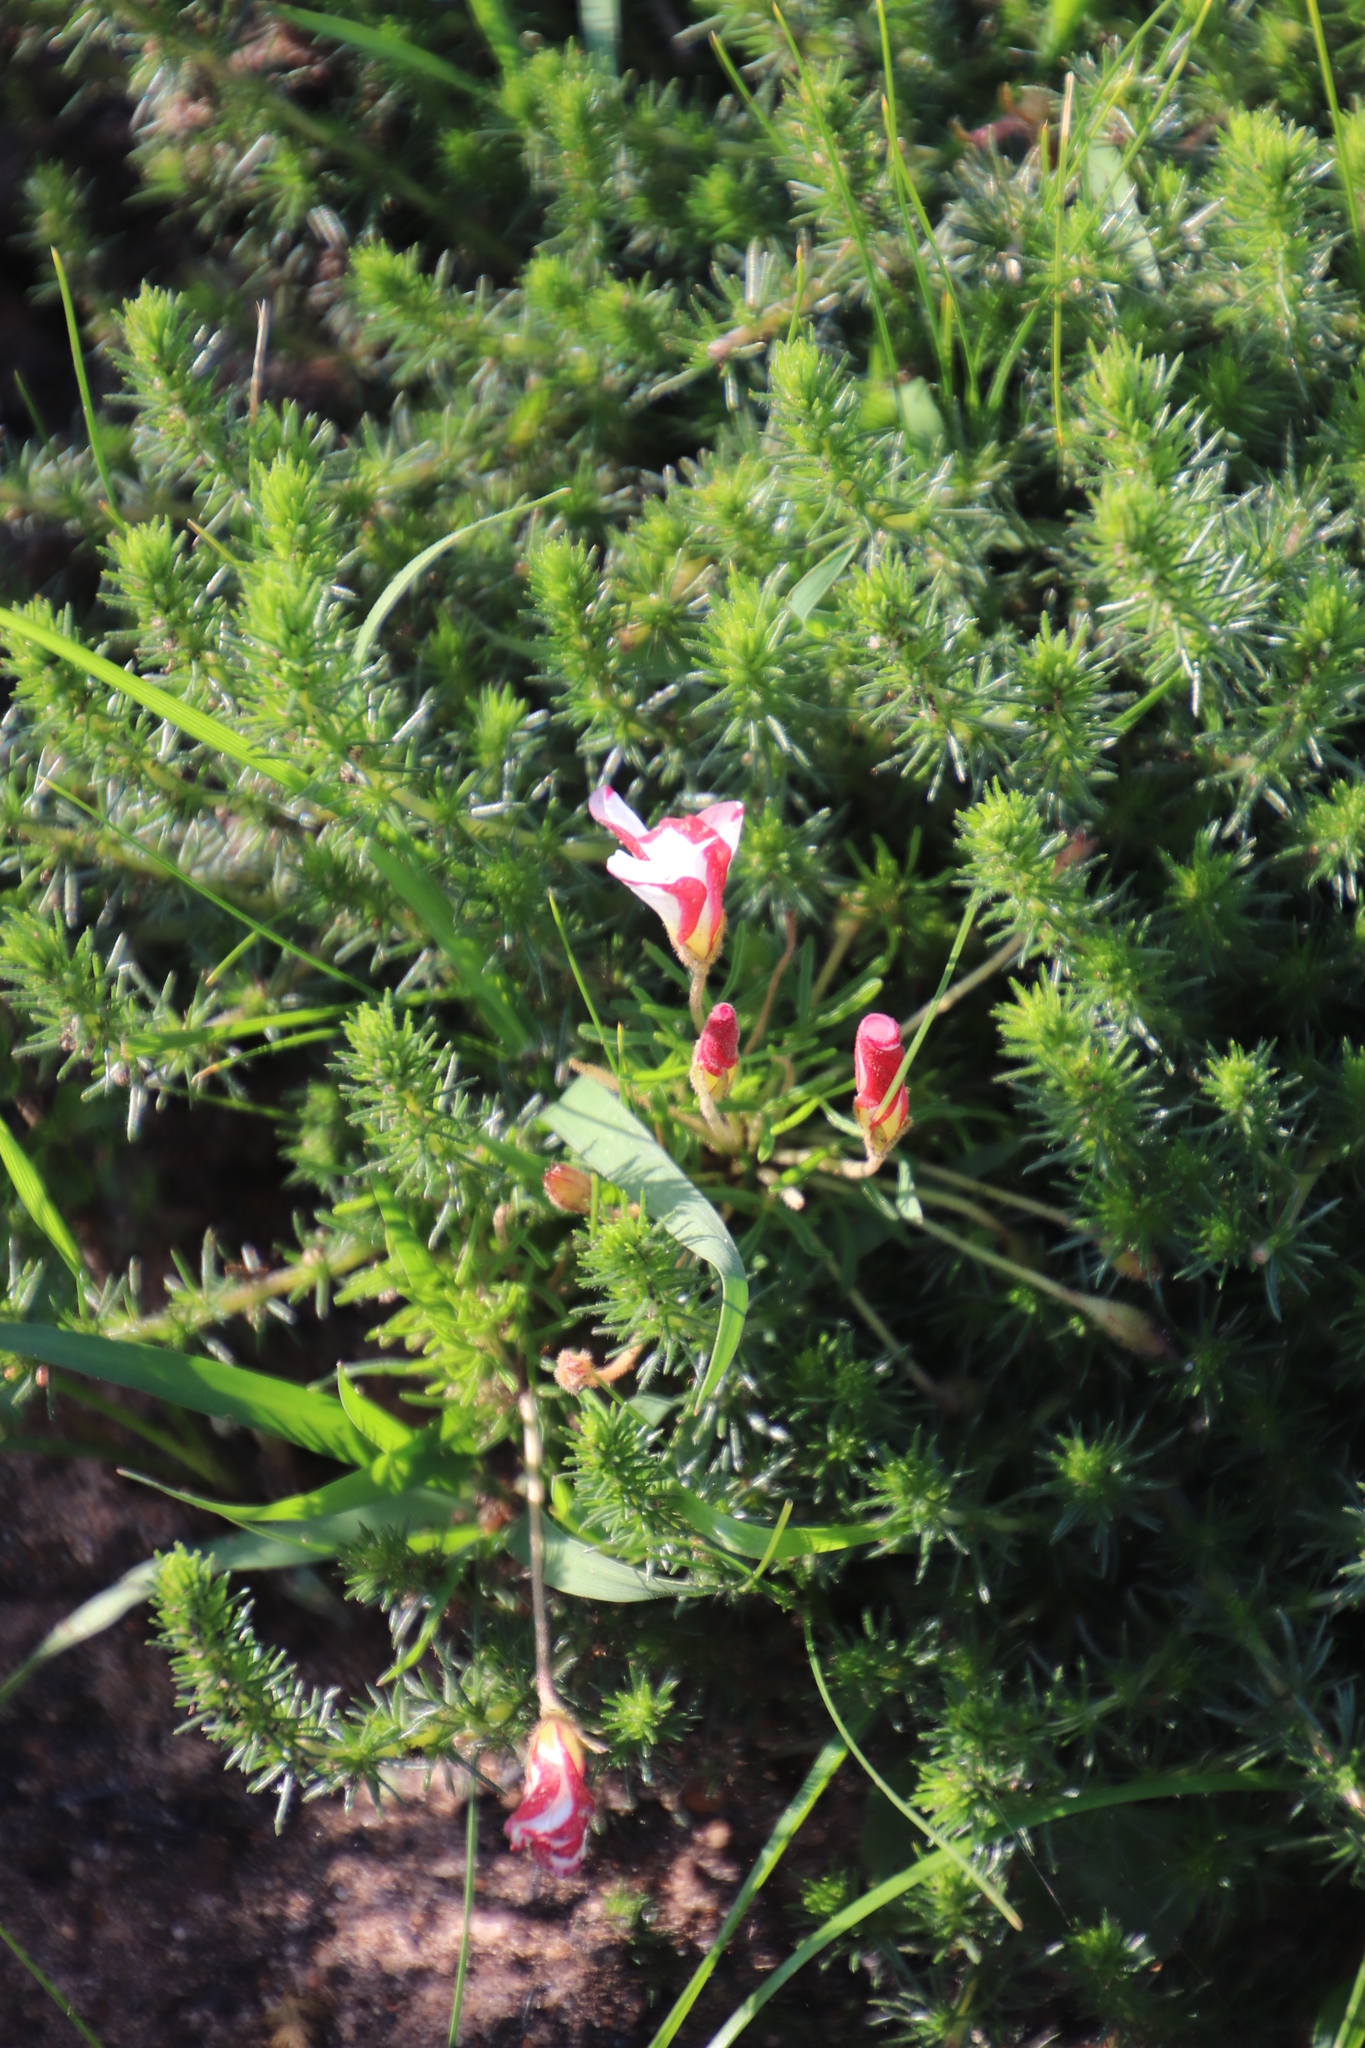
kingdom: Plantae
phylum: Tracheophyta
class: Magnoliopsida
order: Oxalidales
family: Oxalidaceae
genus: Oxalis
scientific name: Oxalis tenuifolia
